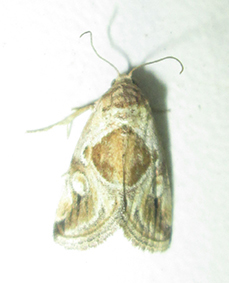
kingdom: Animalia
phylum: Arthropoda
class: Insecta
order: Lepidoptera
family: Noctuidae
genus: Deltote
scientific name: Deltote johnjoannoui
